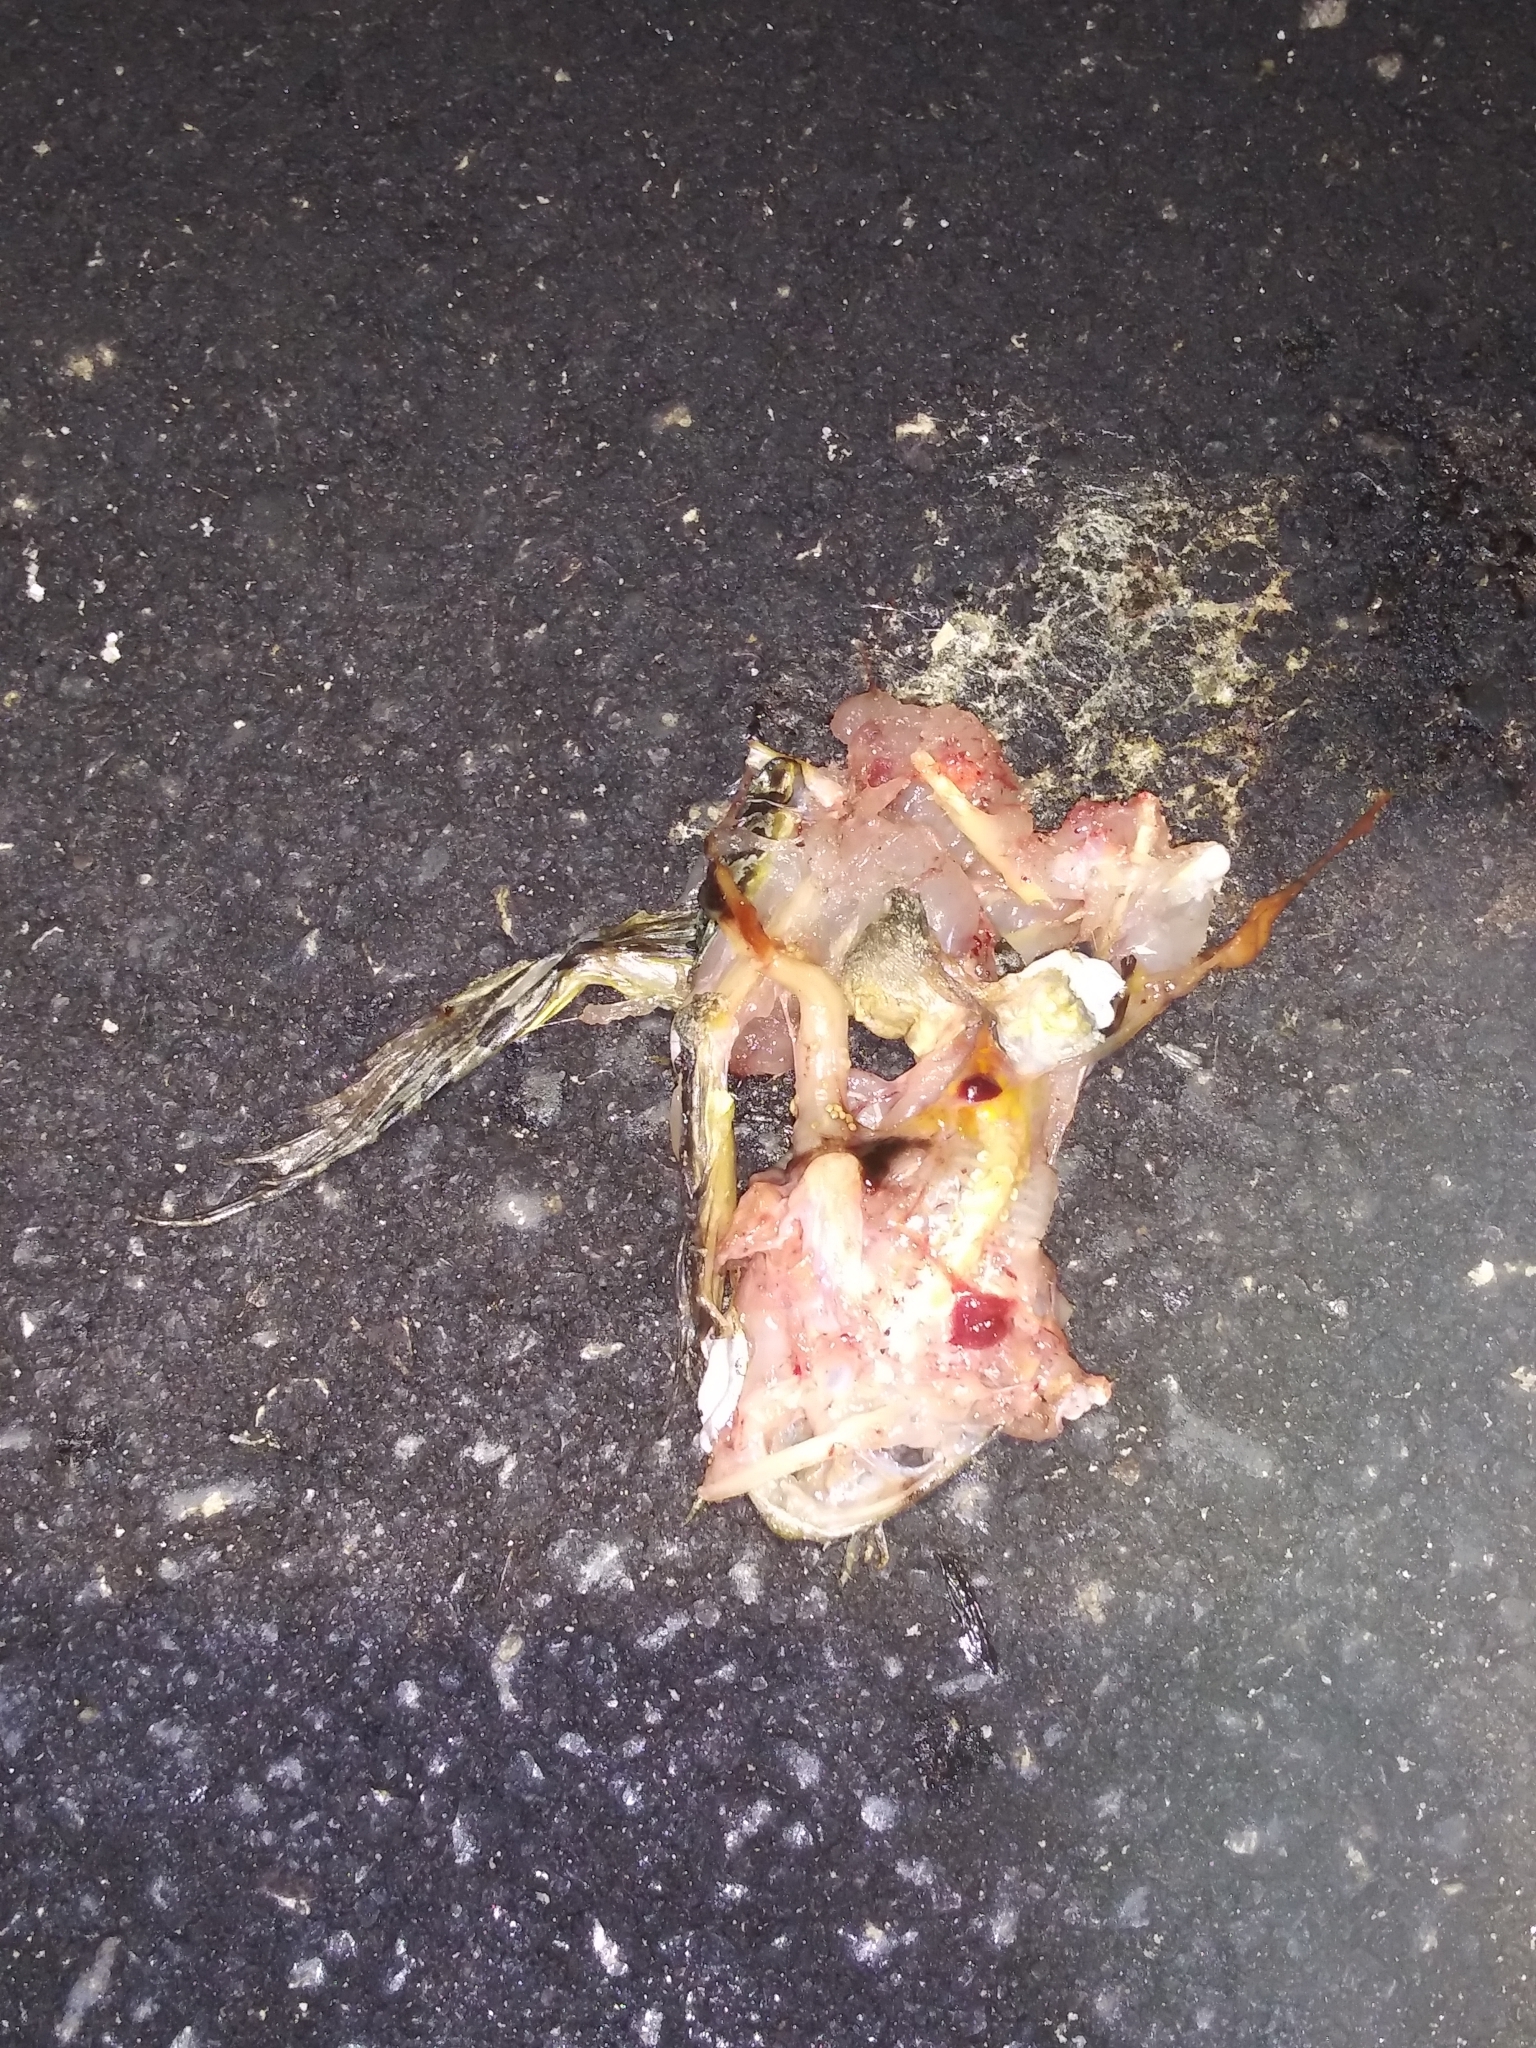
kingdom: Animalia
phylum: Chordata
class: Amphibia
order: Anura
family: Ranidae
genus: Lithobates
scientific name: Lithobates sphenocephalus
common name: Southern leopard frog
